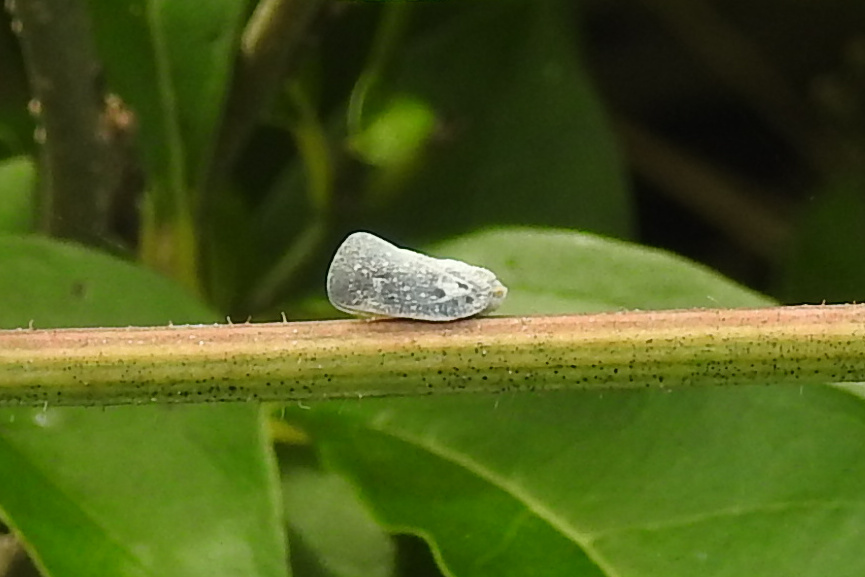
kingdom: Animalia
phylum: Arthropoda
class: Insecta
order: Hemiptera
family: Flatidae
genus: Metcalfa
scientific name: Metcalfa pruinosa
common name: Citrus flatid planthopper
